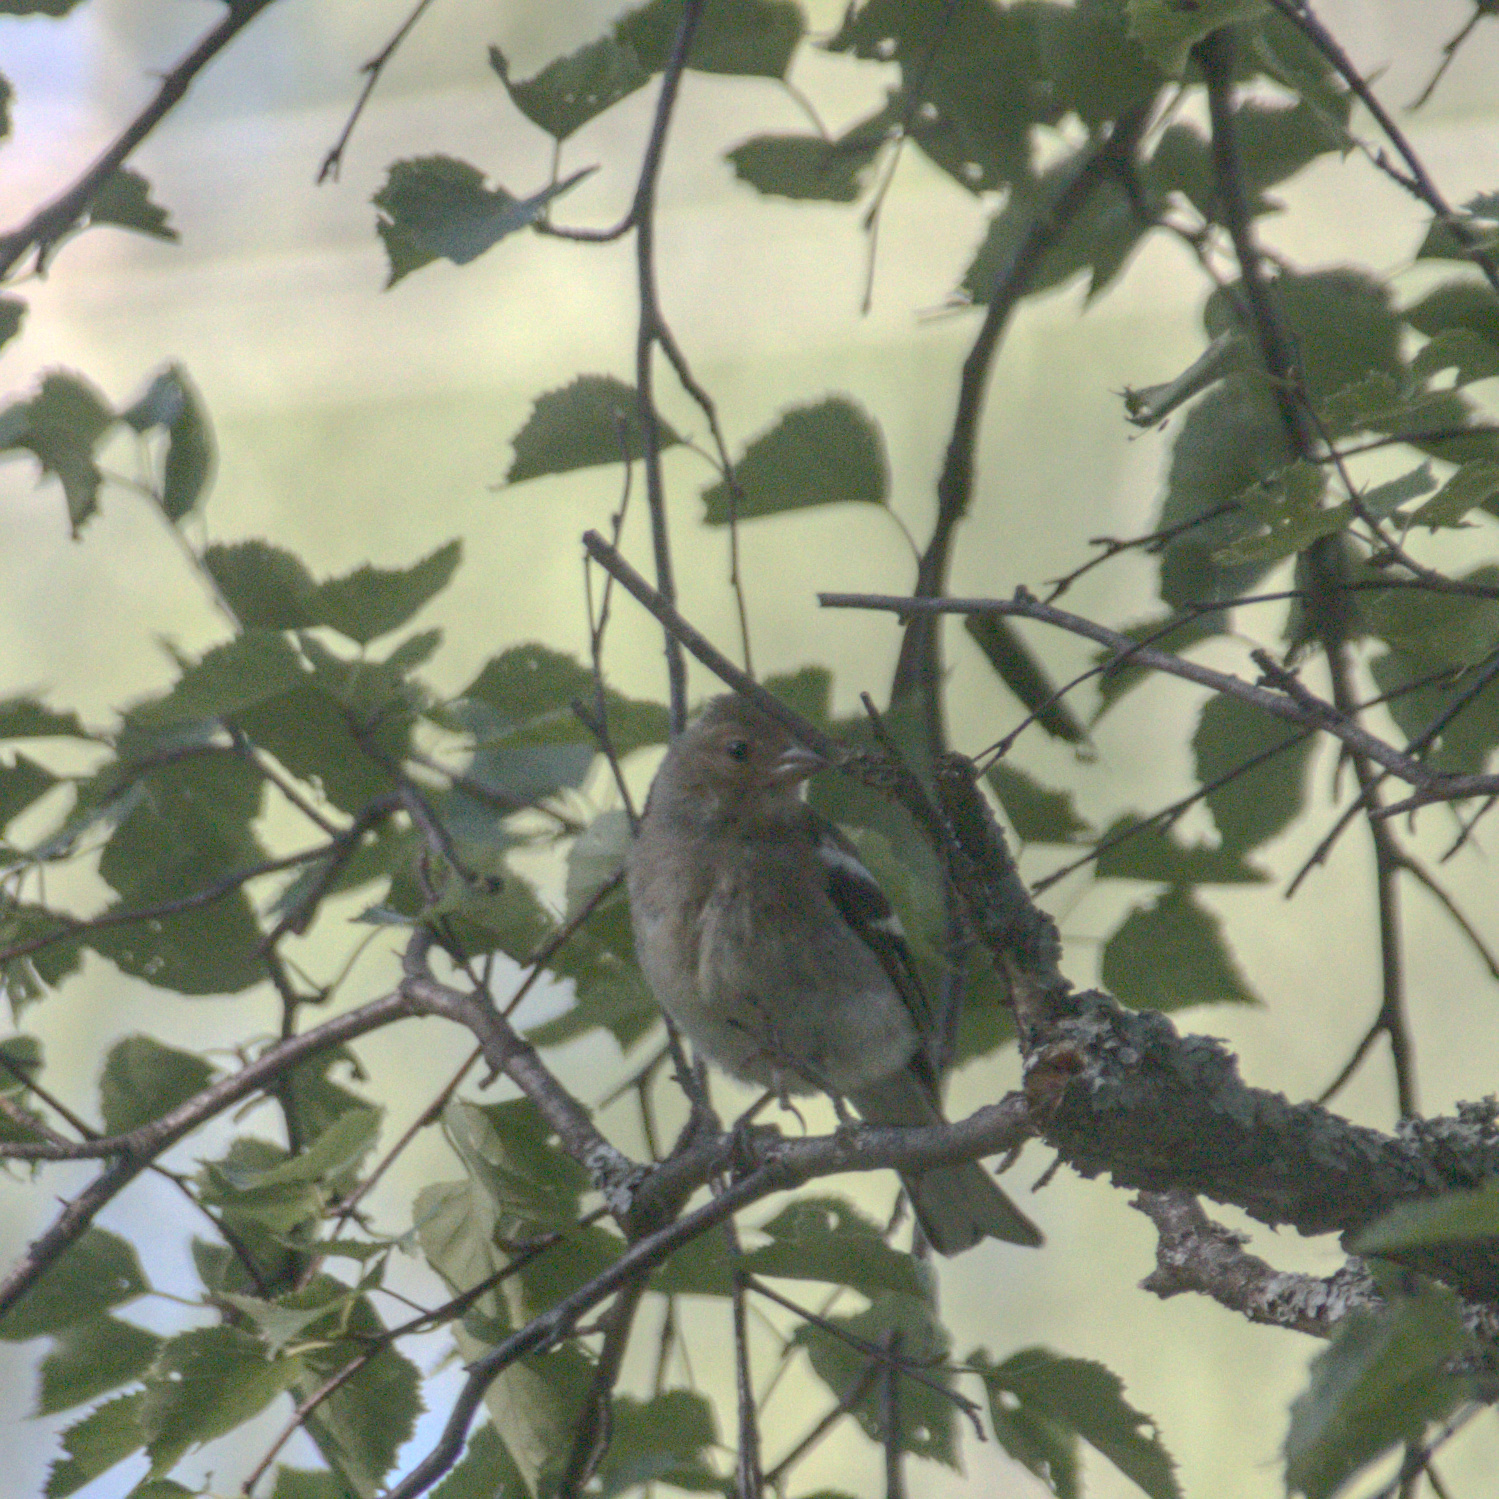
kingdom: Animalia
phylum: Chordata
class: Aves
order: Passeriformes
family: Fringillidae
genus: Fringilla
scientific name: Fringilla coelebs
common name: Common chaffinch
